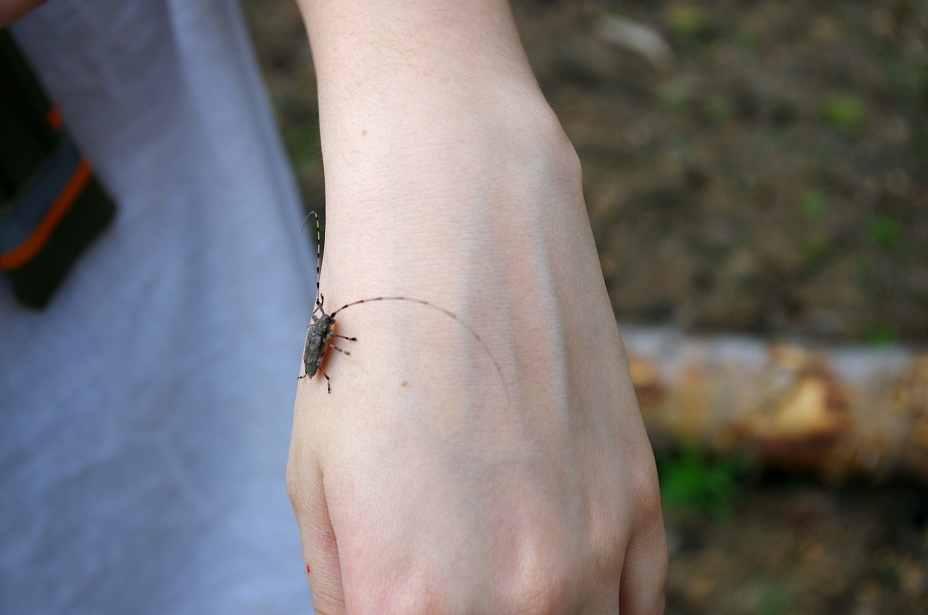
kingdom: Animalia
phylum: Arthropoda
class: Insecta
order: Coleoptera
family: Cerambycidae
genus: Acanthocinus
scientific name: Acanthocinus aedilis
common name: Timberman beetle
